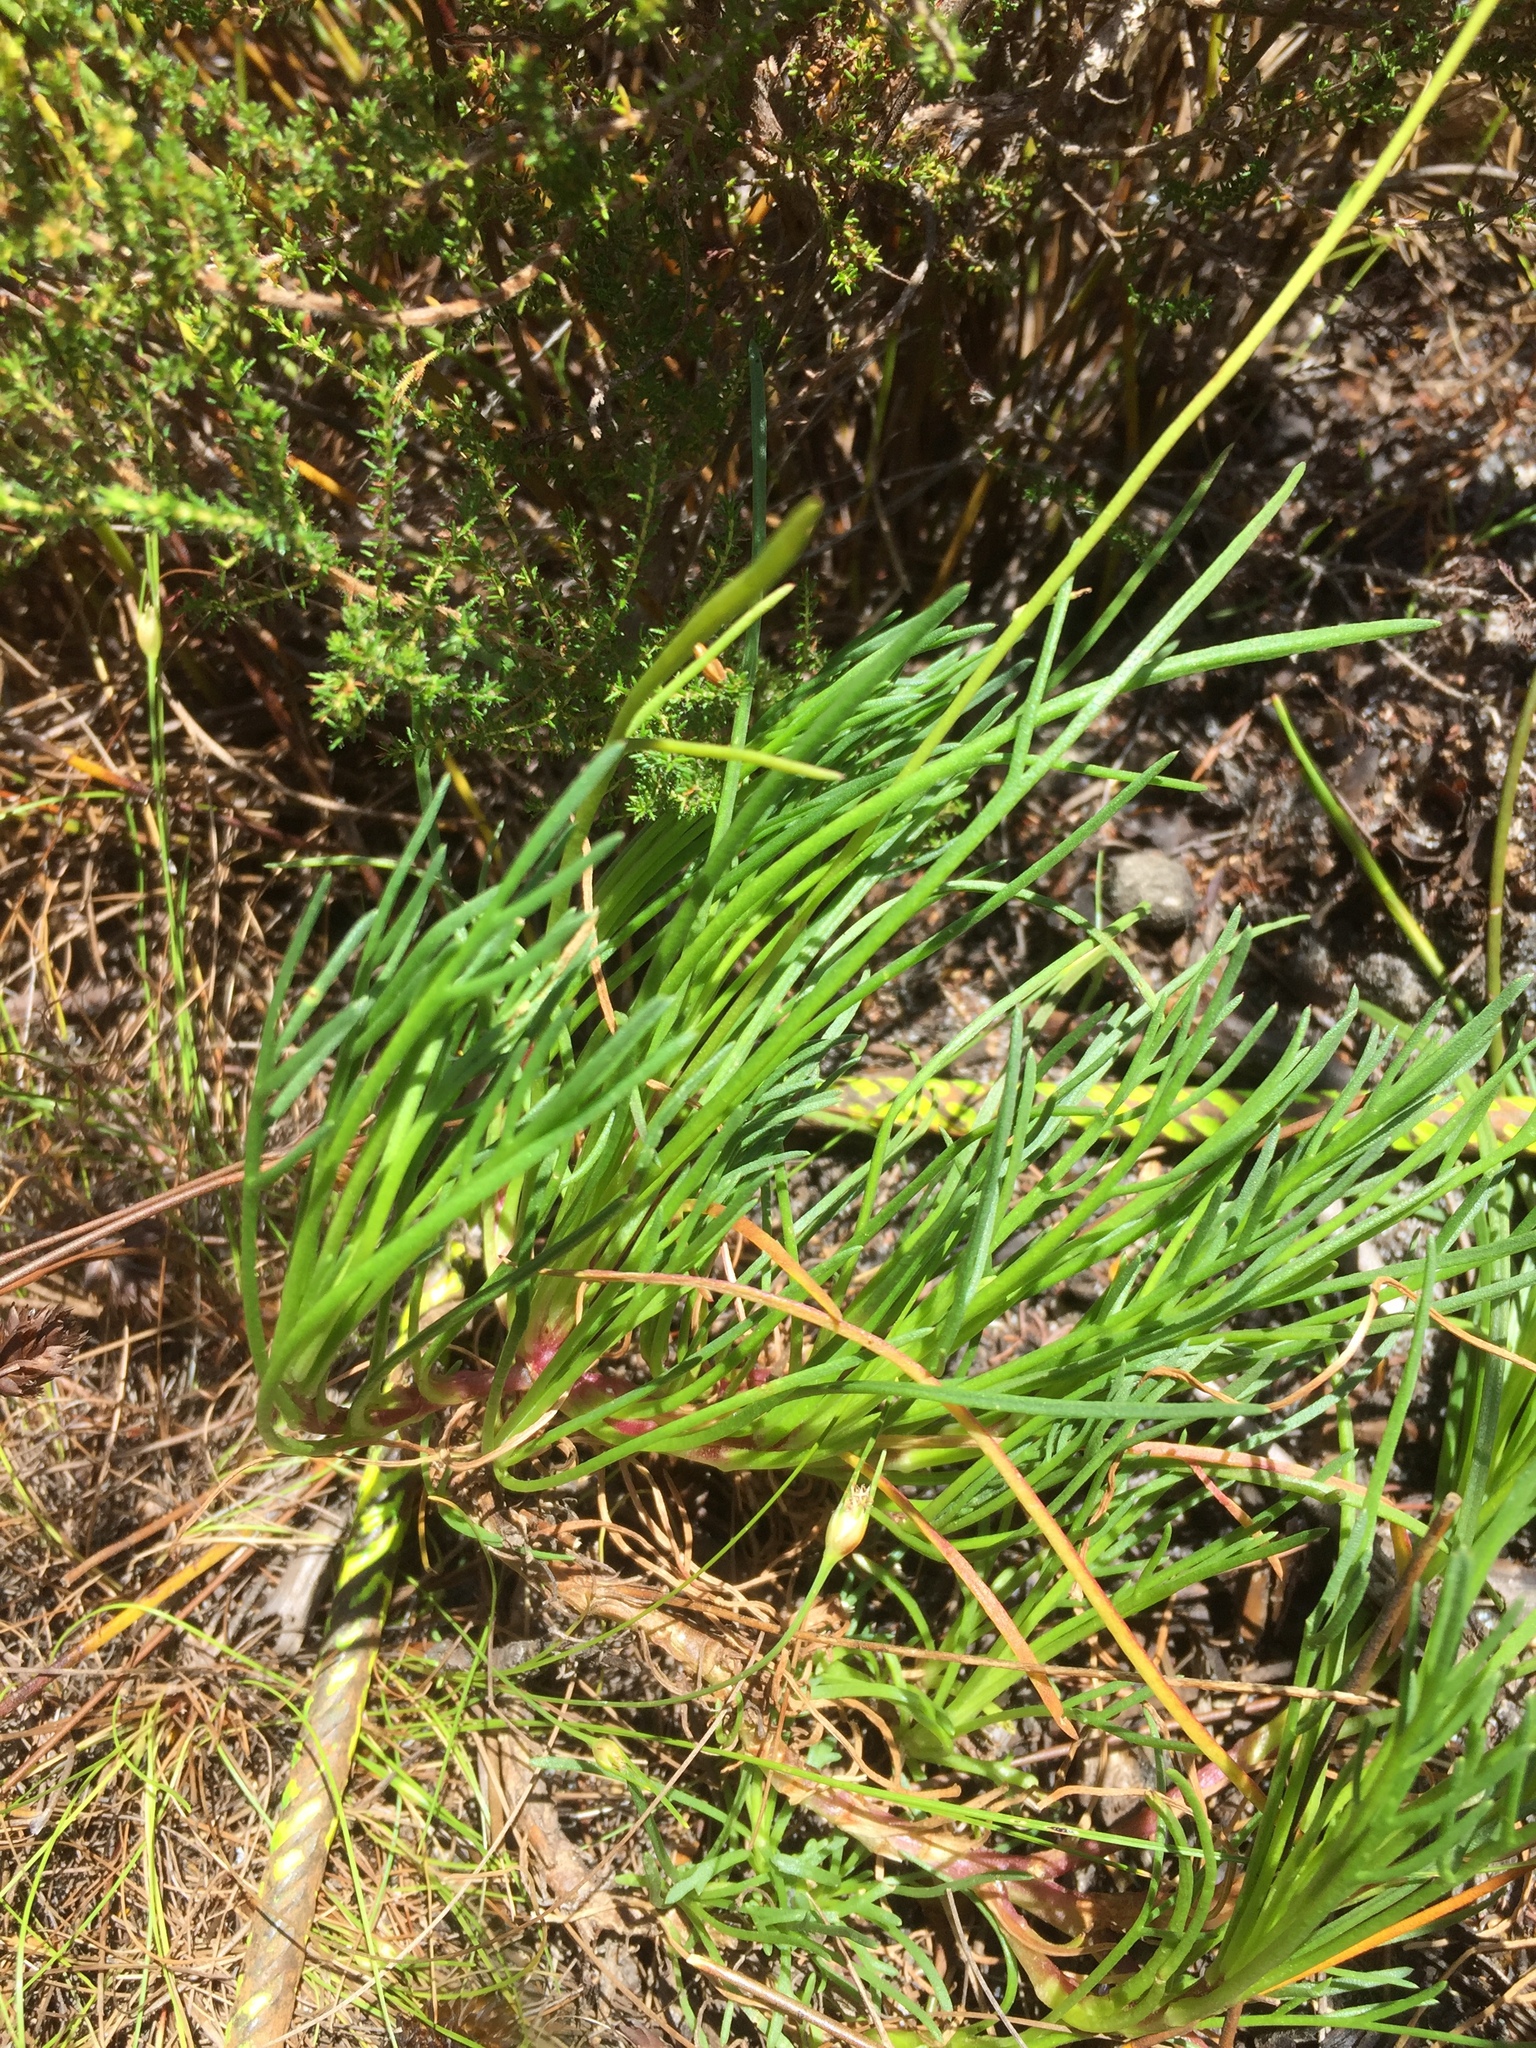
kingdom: Plantae
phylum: Tracheophyta
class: Magnoliopsida
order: Asterales
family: Asteraceae
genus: Ursinia
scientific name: Ursinia tenuifolia
